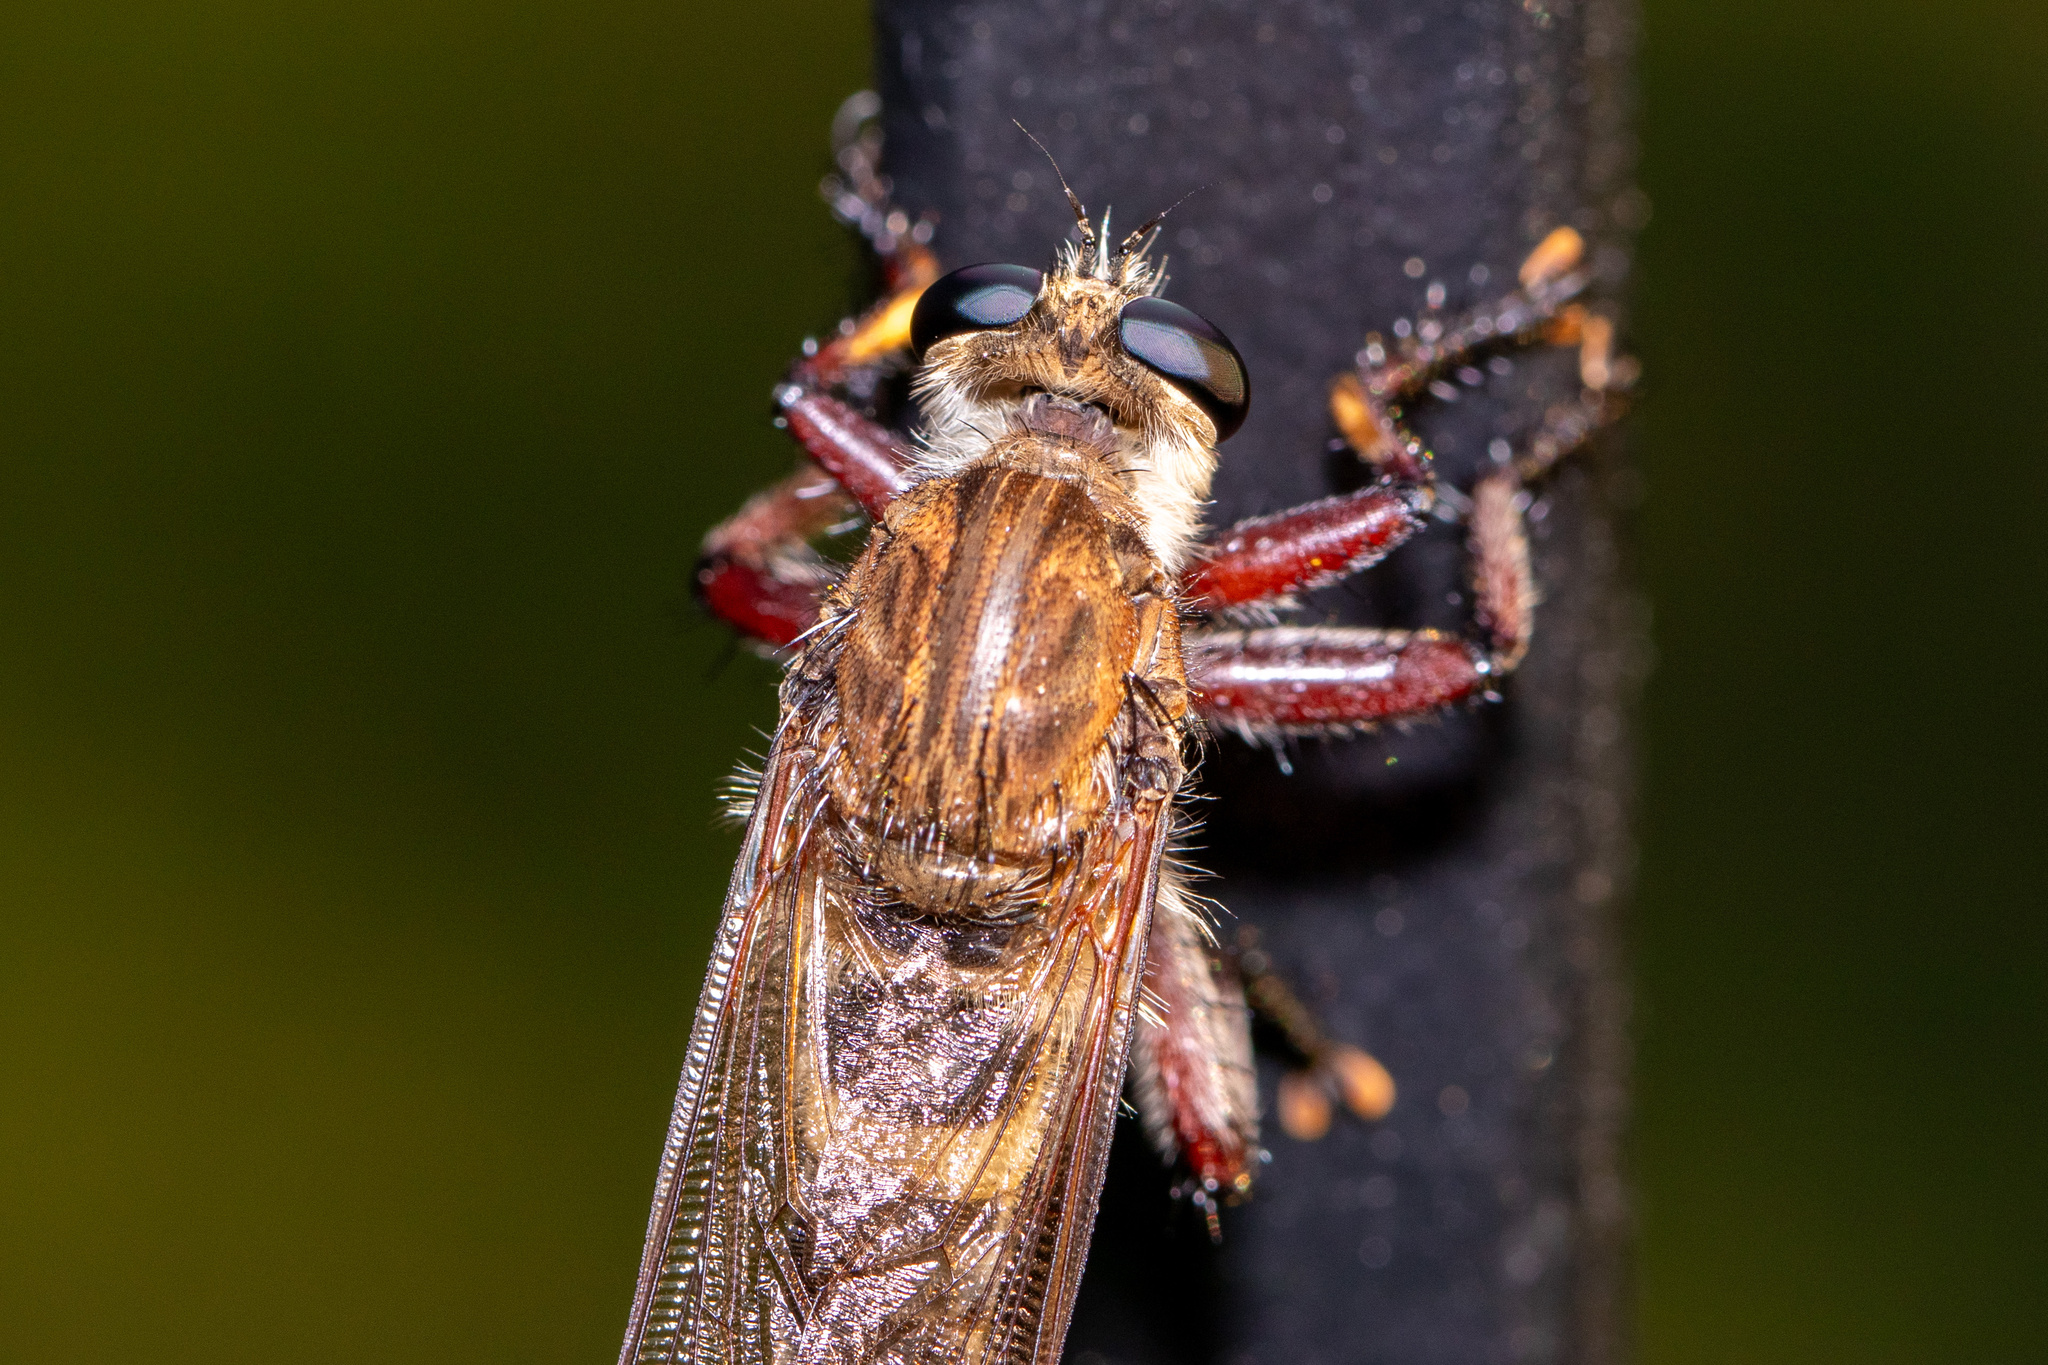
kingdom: Animalia
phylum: Arthropoda
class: Insecta
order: Diptera
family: Asilidae
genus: Promachus
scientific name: Promachus hinei
